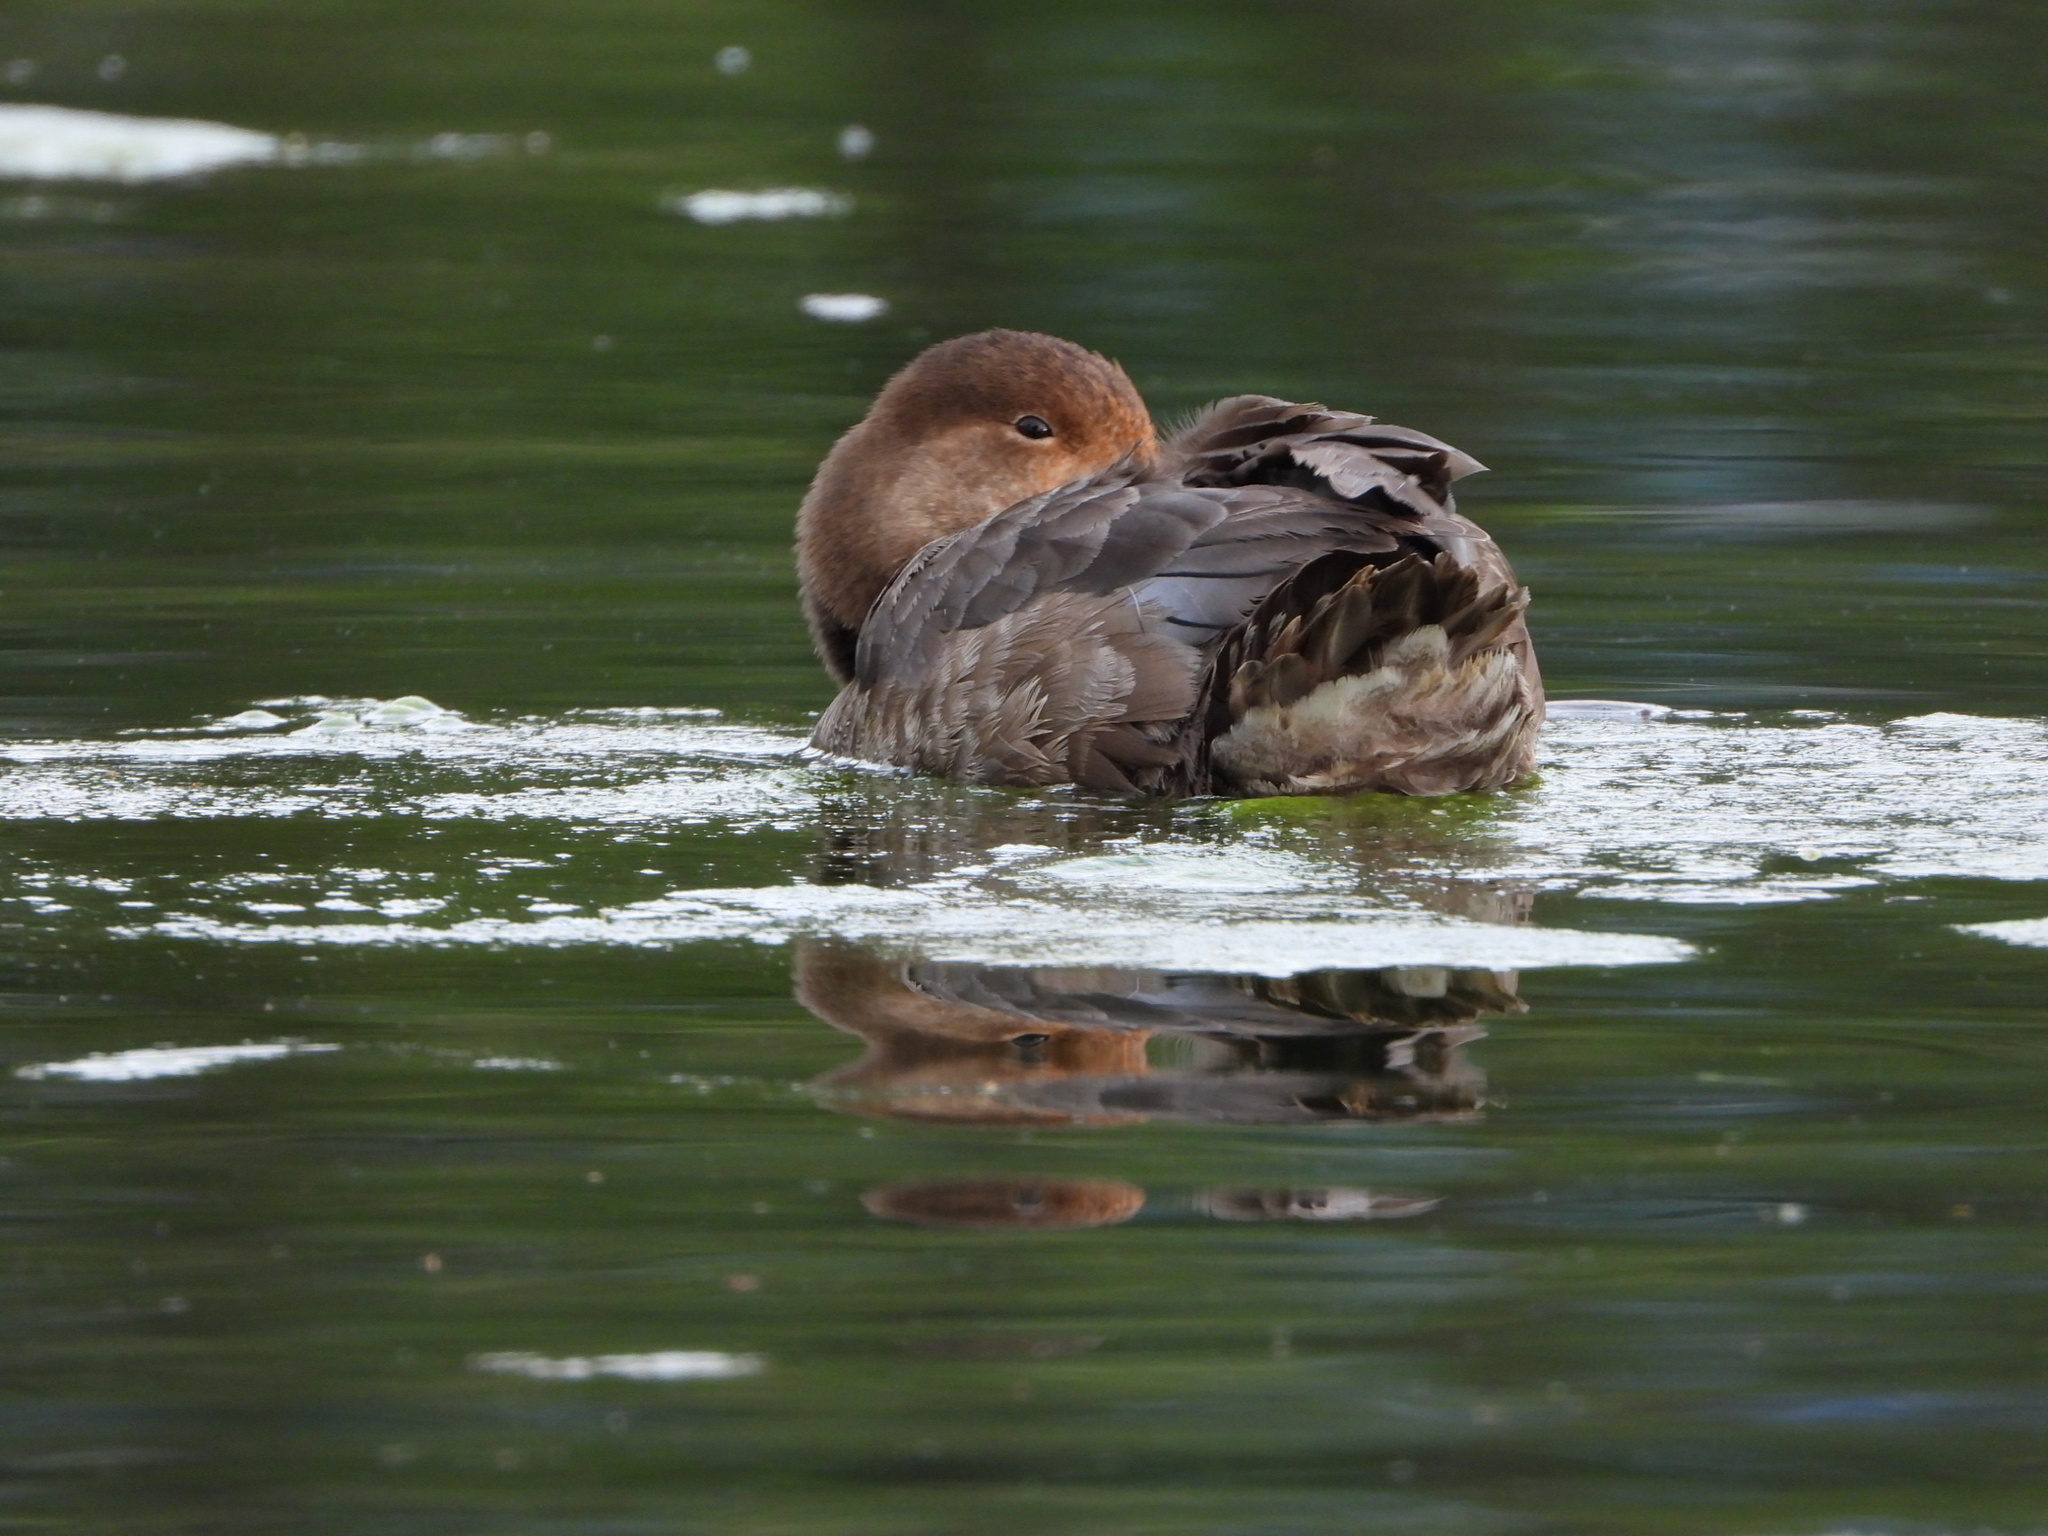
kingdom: Animalia
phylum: Chordata
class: Aves
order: Anseriformes
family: Anatidae
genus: Aythya
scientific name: Aythya americana
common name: Redhead
